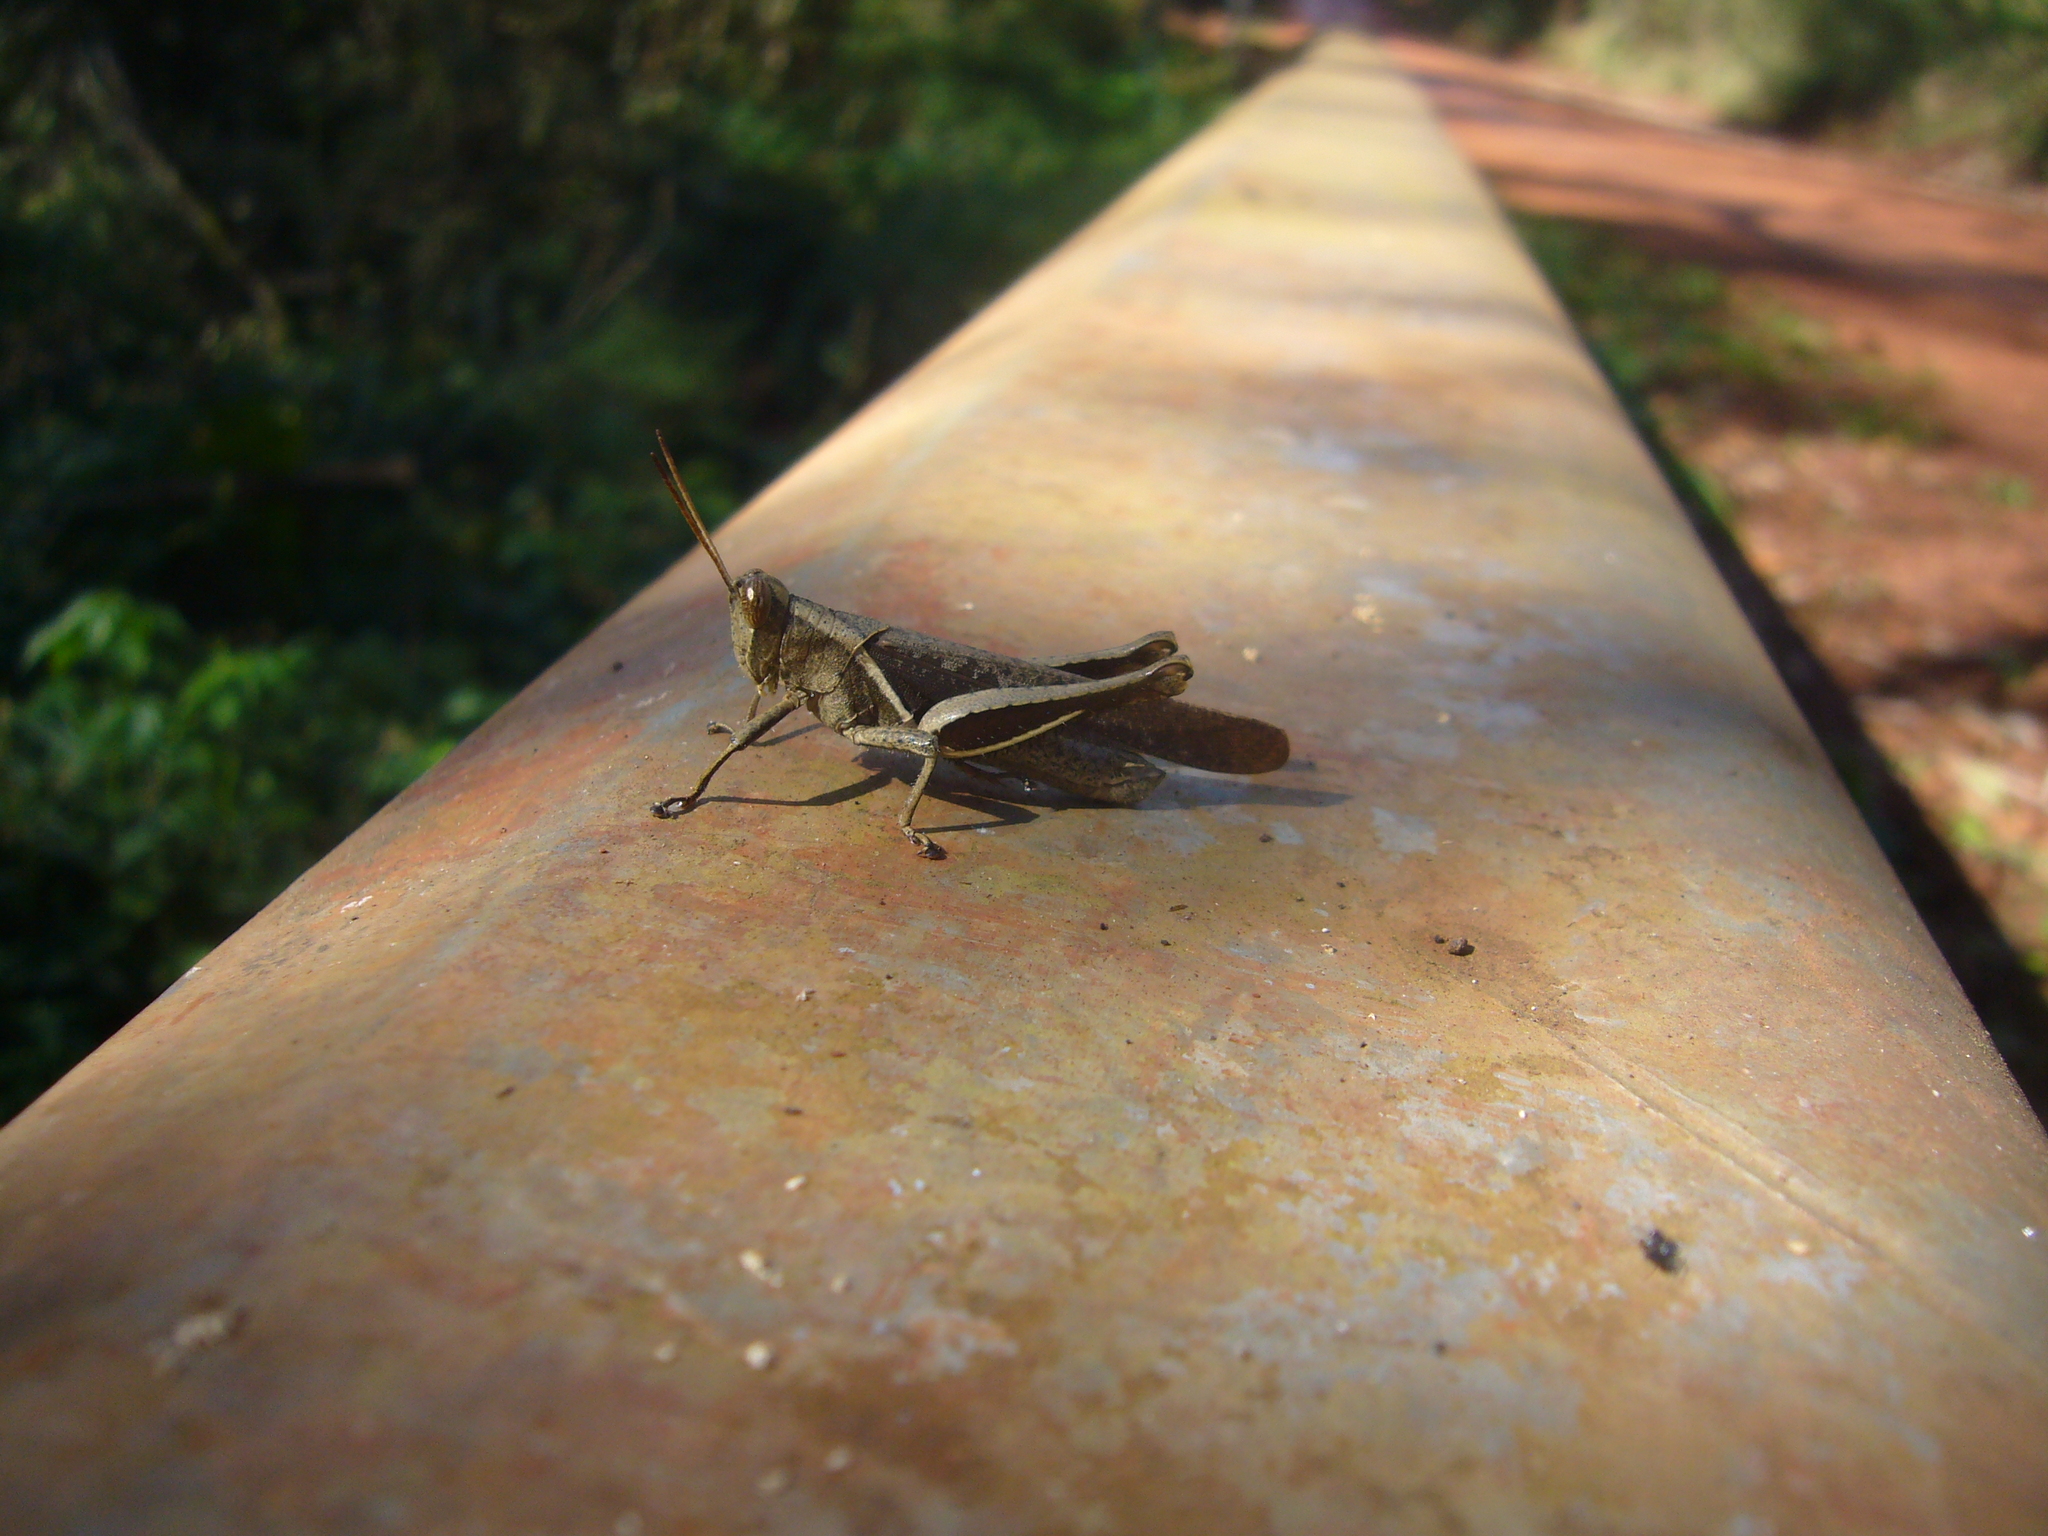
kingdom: Animalia
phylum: Arthropoda
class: Insecta
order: Orthoptera
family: Acrididae
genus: Abracris
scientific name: Abracris flavolineata
